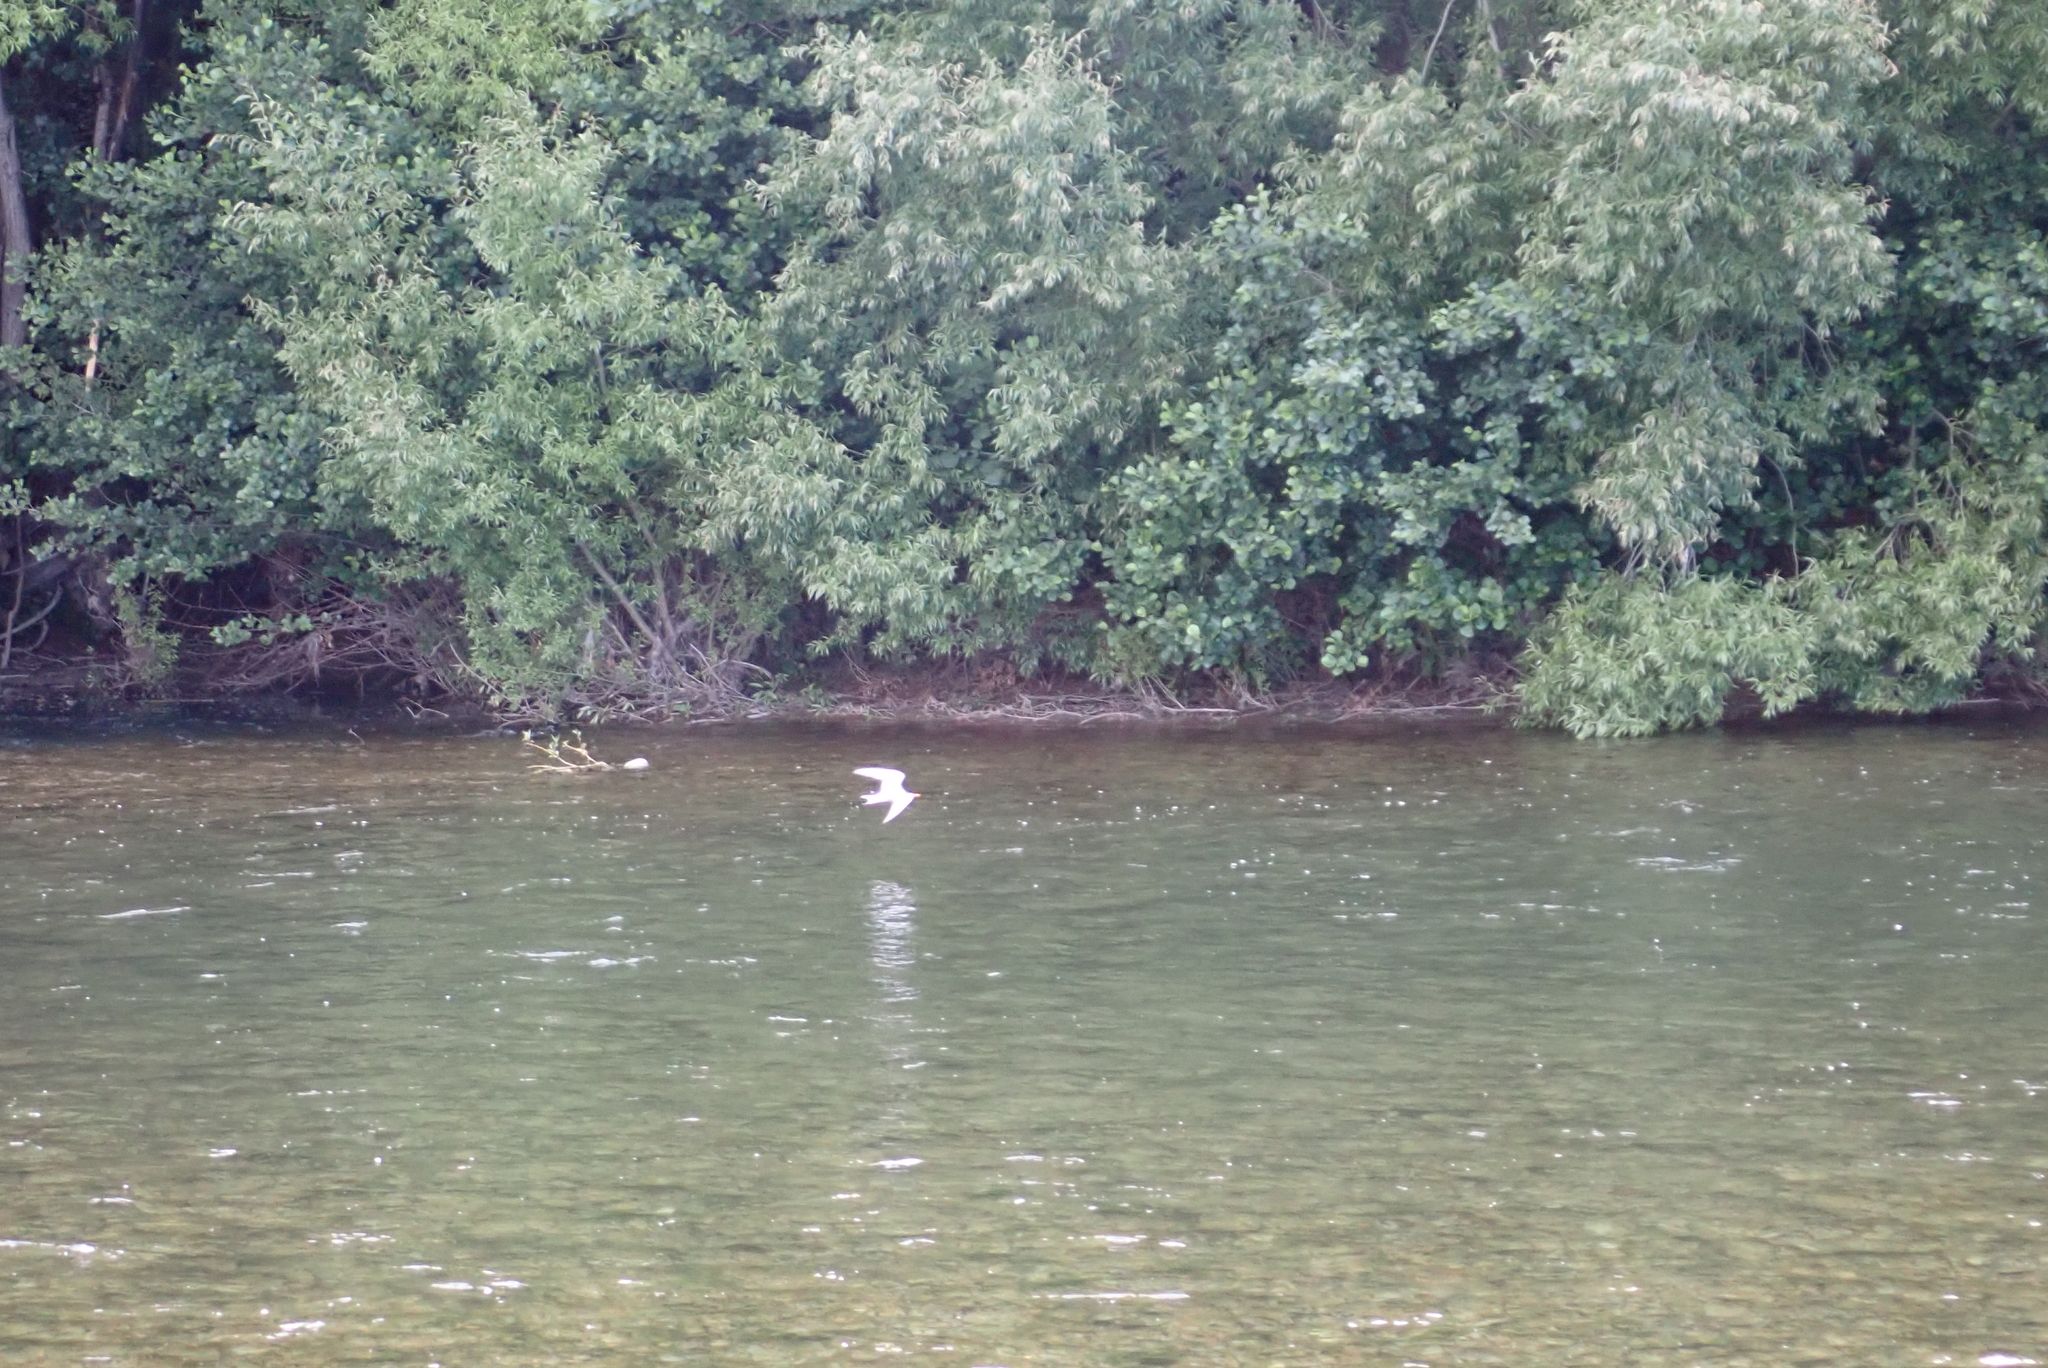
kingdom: Animalia
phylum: Chordata
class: Aves
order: Charadriiformes
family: Laridae
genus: Chlidonias
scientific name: Chlidonias albostriatus
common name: Black-fronted tern
